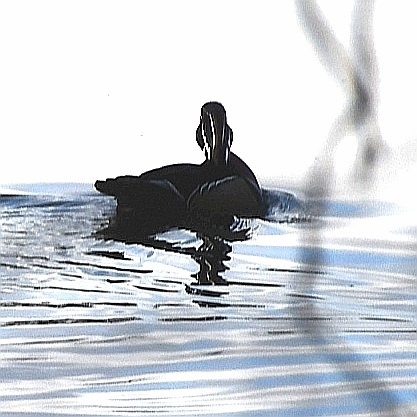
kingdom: Animalia
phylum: Chordata
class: Aves
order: Anseriformes
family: Anatidae
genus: Aix
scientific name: Aix sponsa
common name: Wood duck
